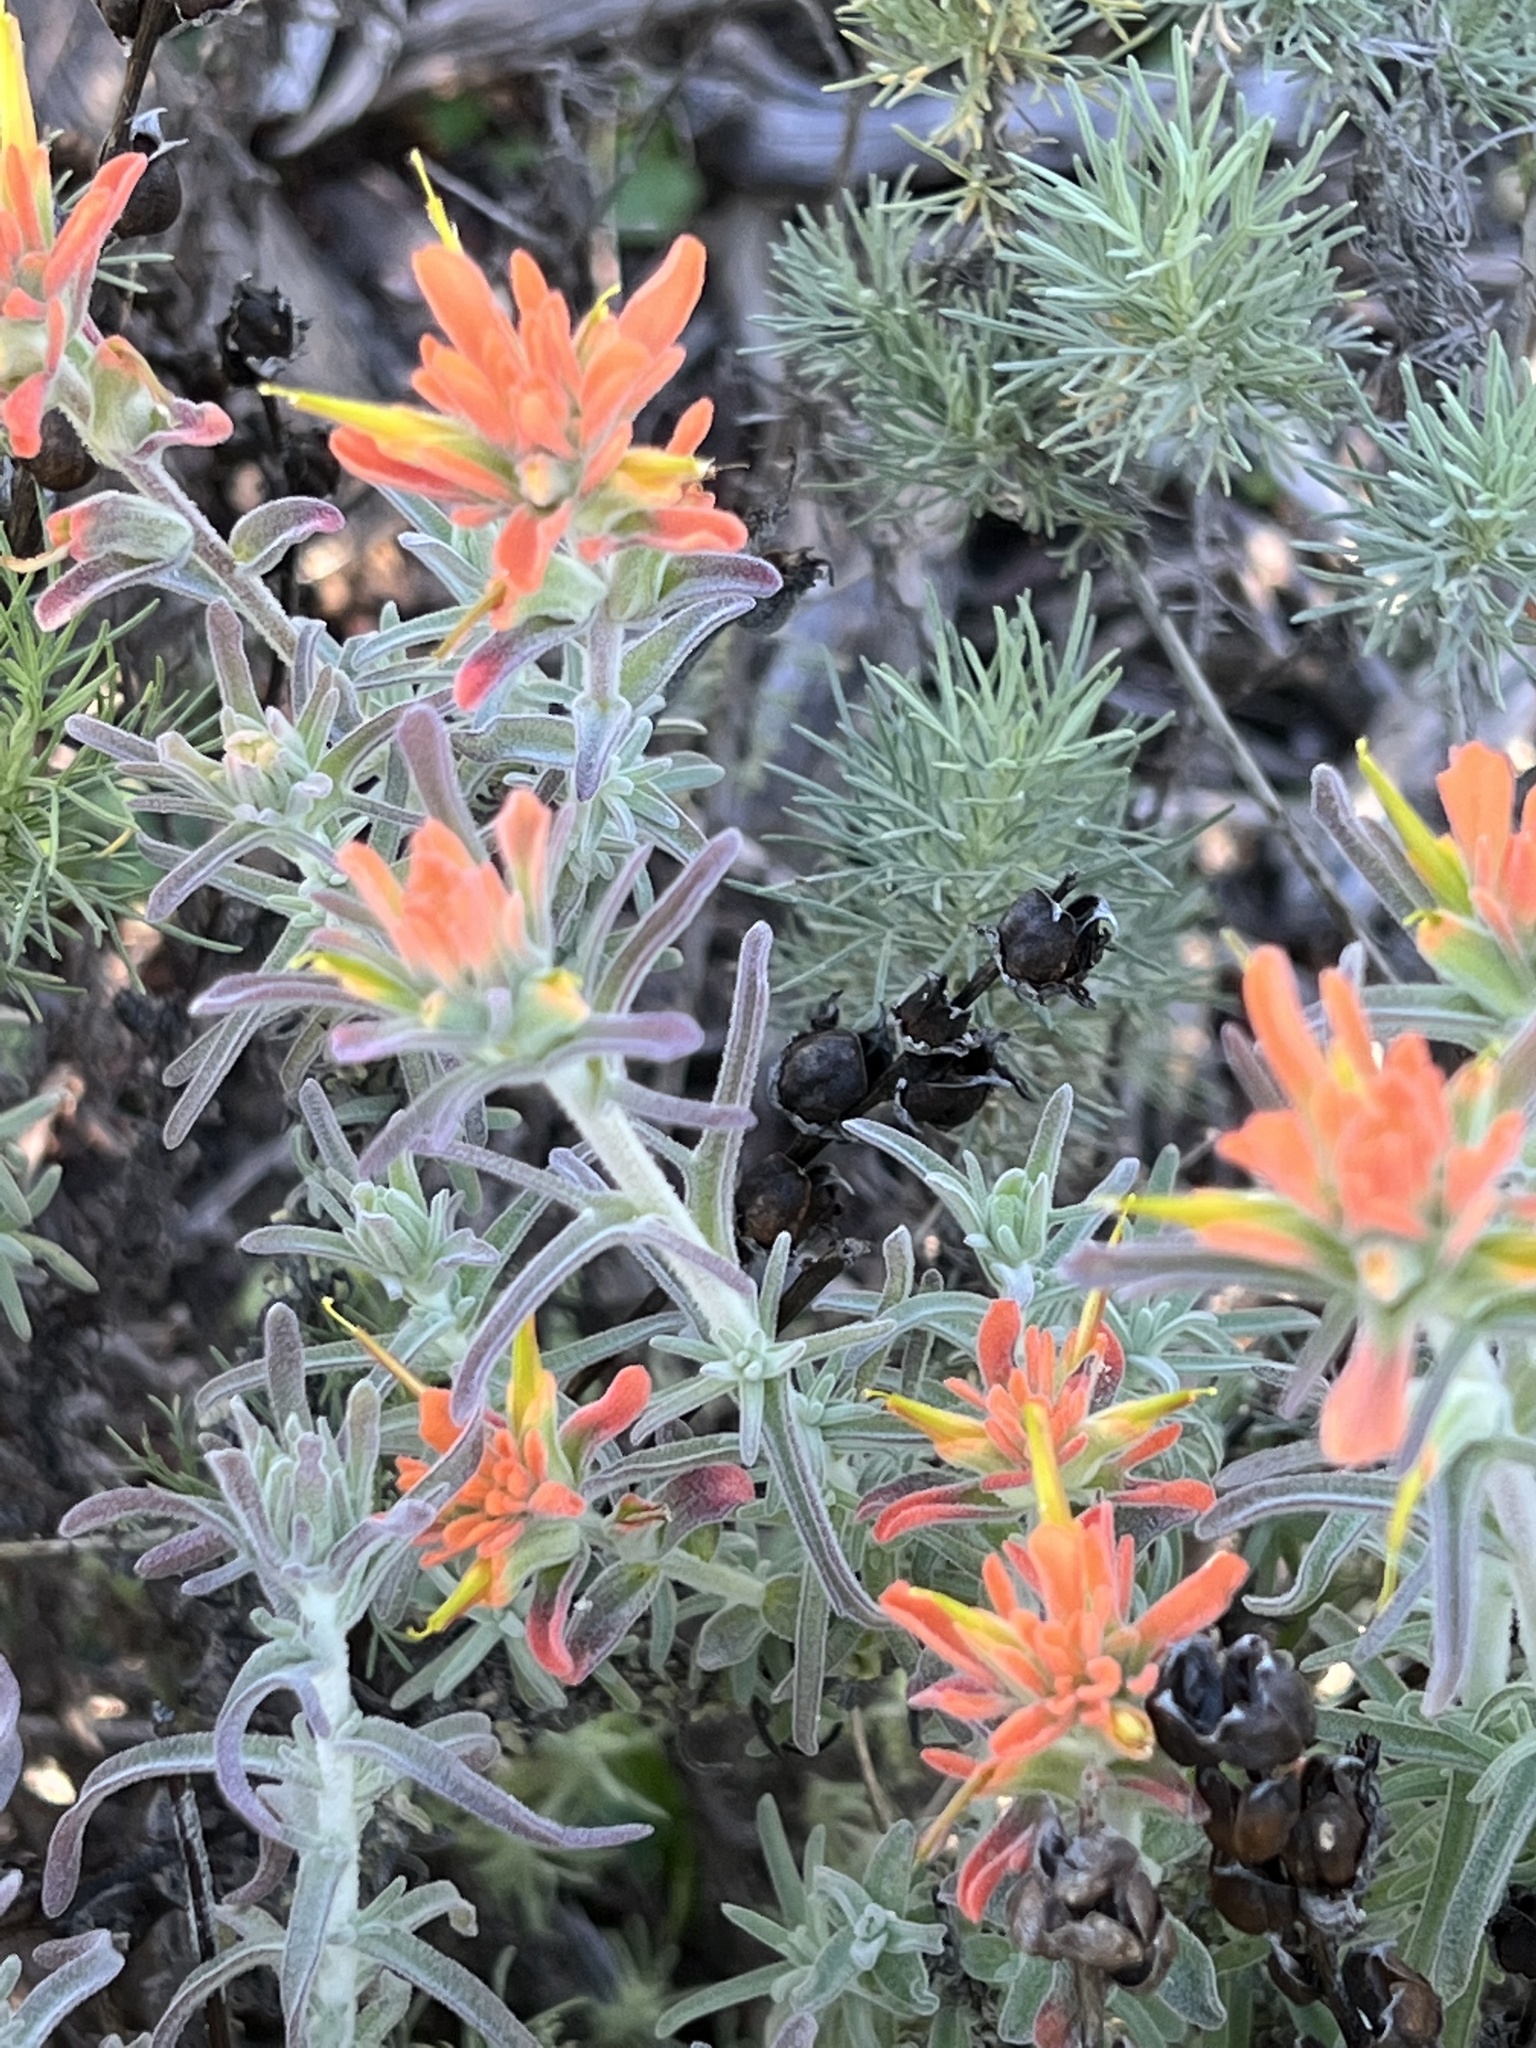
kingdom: Plantae
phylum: Tracheophyta
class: Magnoliopsida
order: Lamiales
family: Orobanchaceae
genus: Castilleja
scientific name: Castilleja foliolosa
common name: Woolly indian paintbrush
